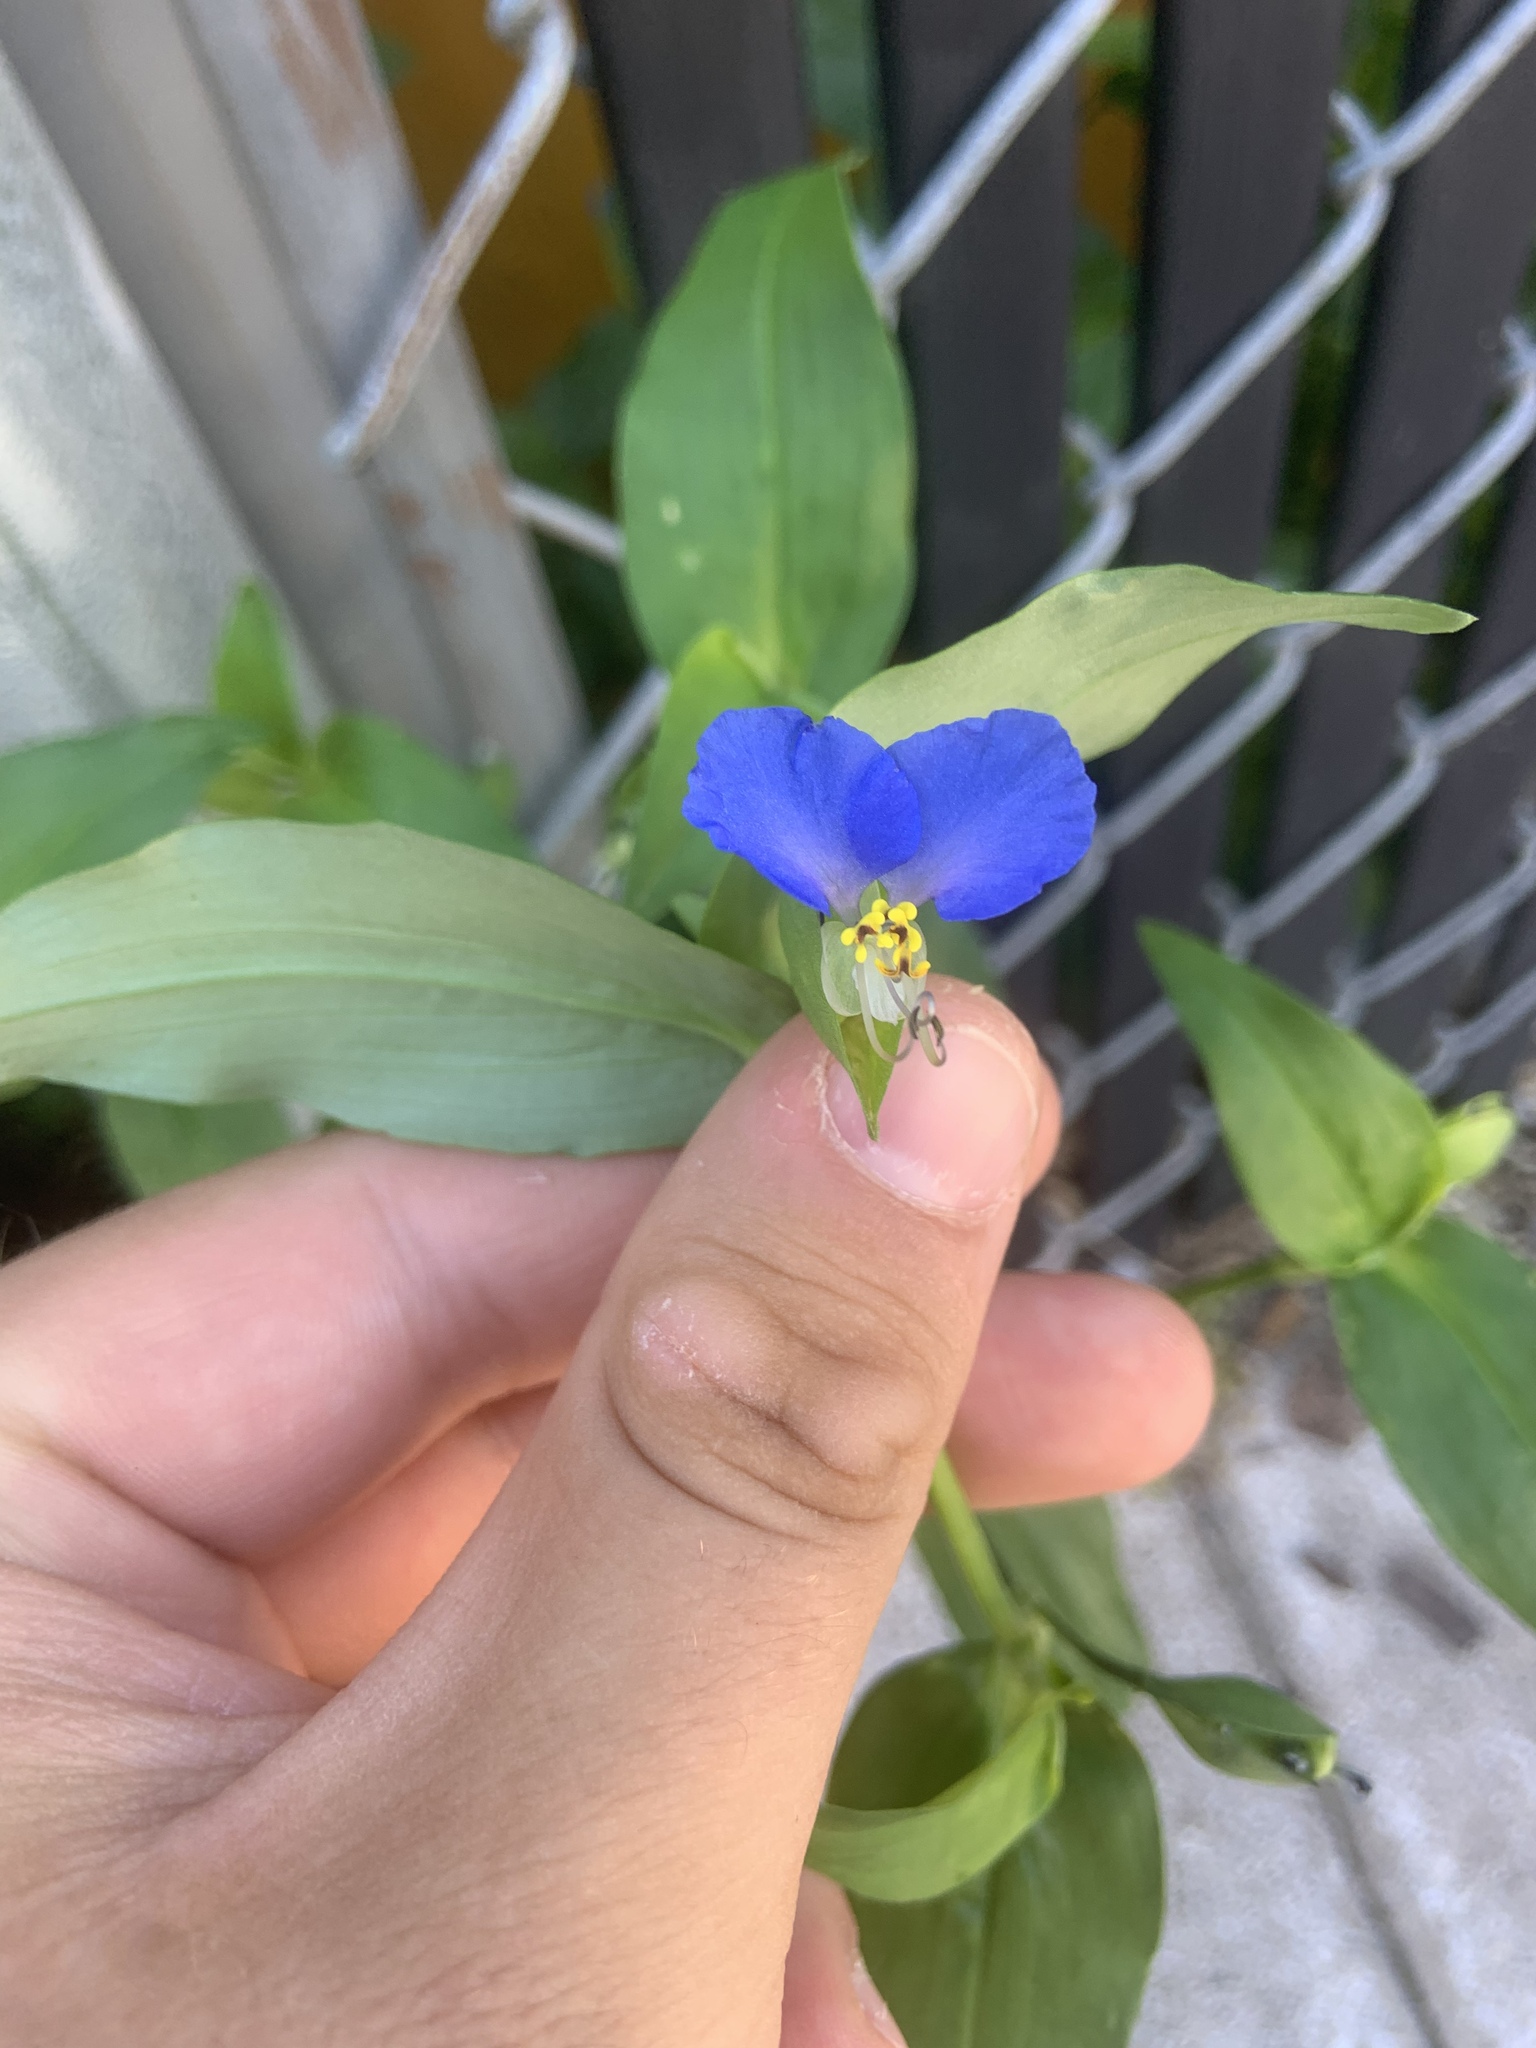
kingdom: Plantae
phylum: Tracheophyta
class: Liliopsida
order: Commelinales
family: Commelinaceae
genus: Commelina
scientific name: Commelina communis
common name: Asiatic dayflower
